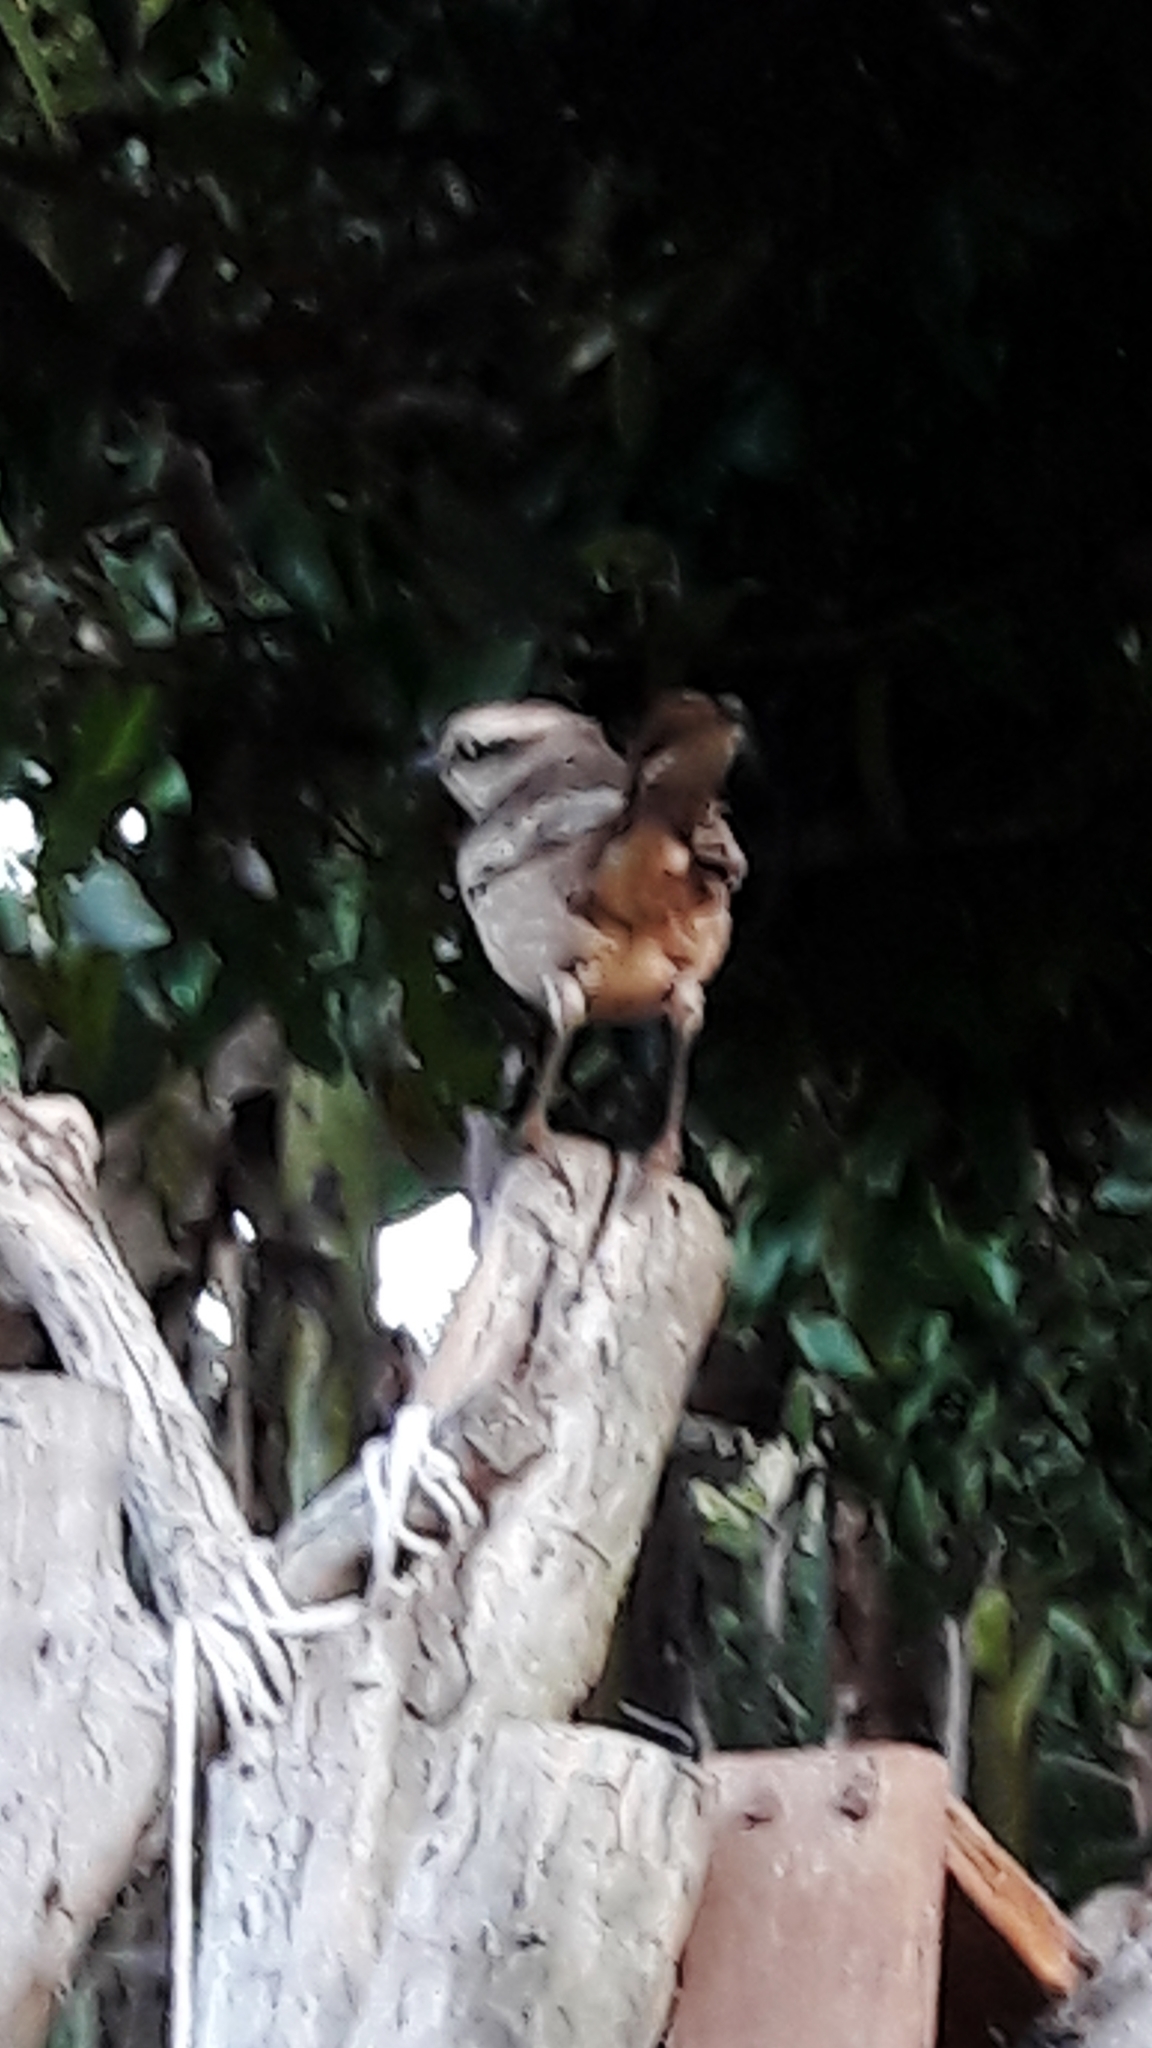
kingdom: Animalia
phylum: Chordata
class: Aves
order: Passeriformes
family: Mimidae
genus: Mimus
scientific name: Mimus saturninus
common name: Chalk-browed mockingbird
